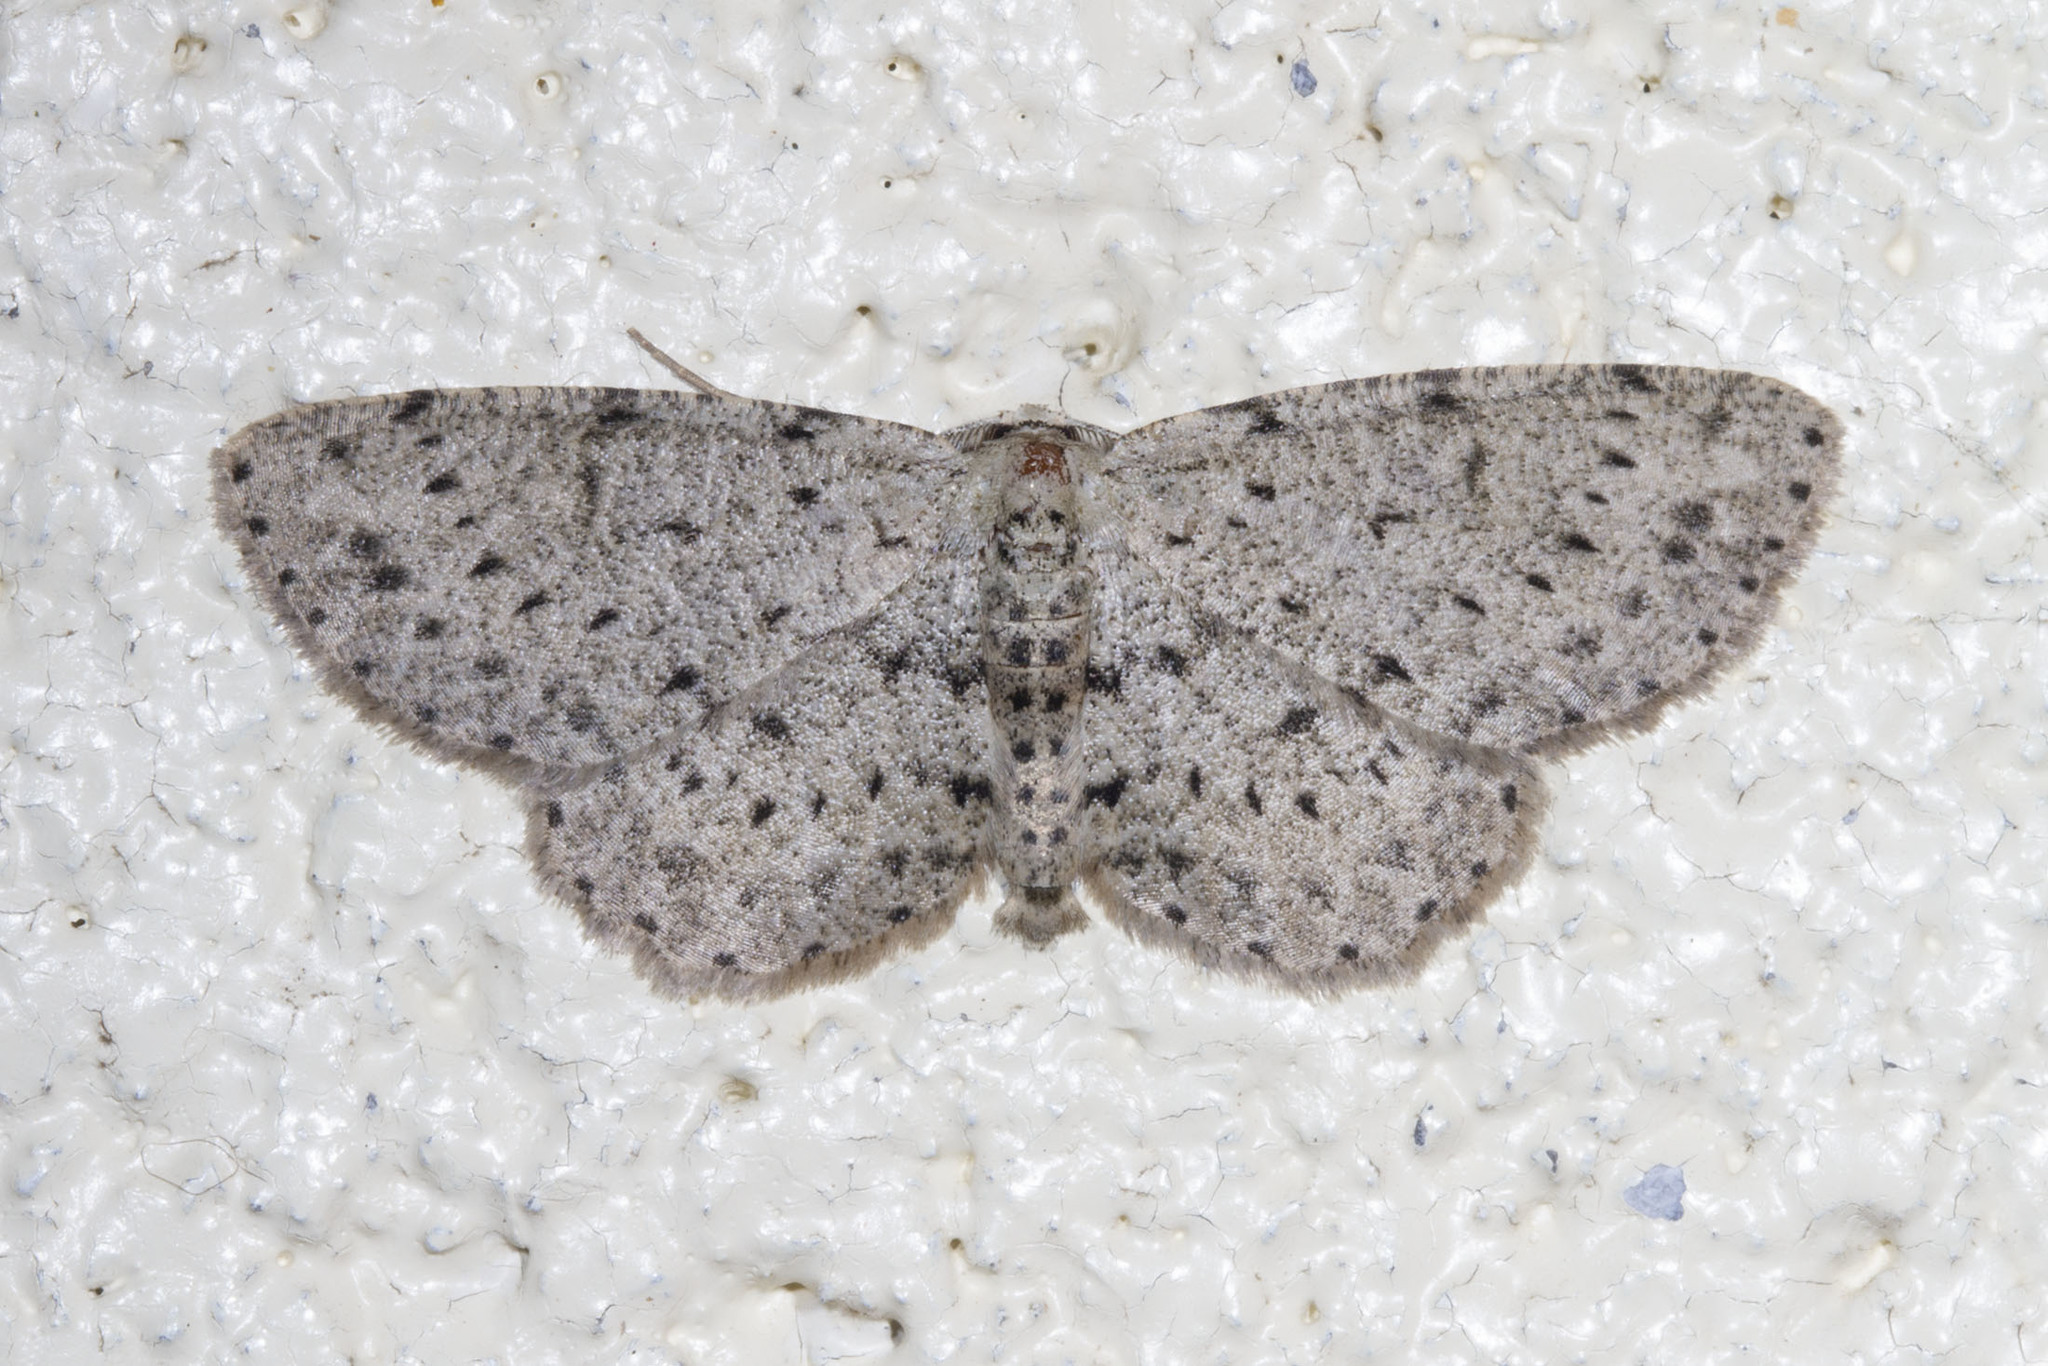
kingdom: Animalia
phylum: Arthropoda
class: Insecta
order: Lepidoptera
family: Geometridae
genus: Glena
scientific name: Glena cribrataria
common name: Dotted gray
